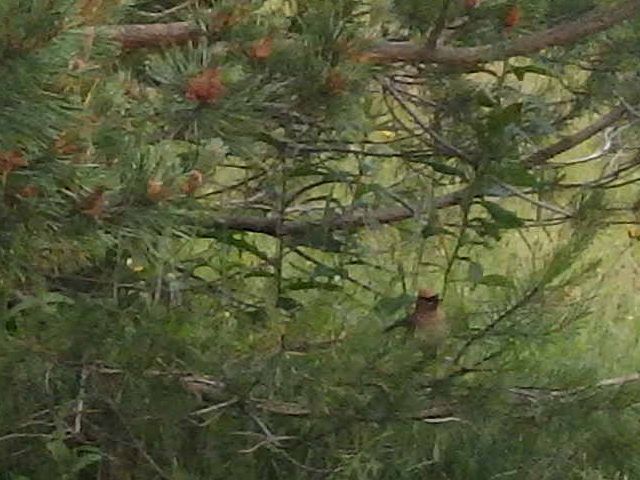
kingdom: Animalia
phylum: Chordata
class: Aves
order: Passeriformes
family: Bombycillidae
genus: Bombycilla
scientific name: Bombycilla cedrorum
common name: Cedar waxwing
